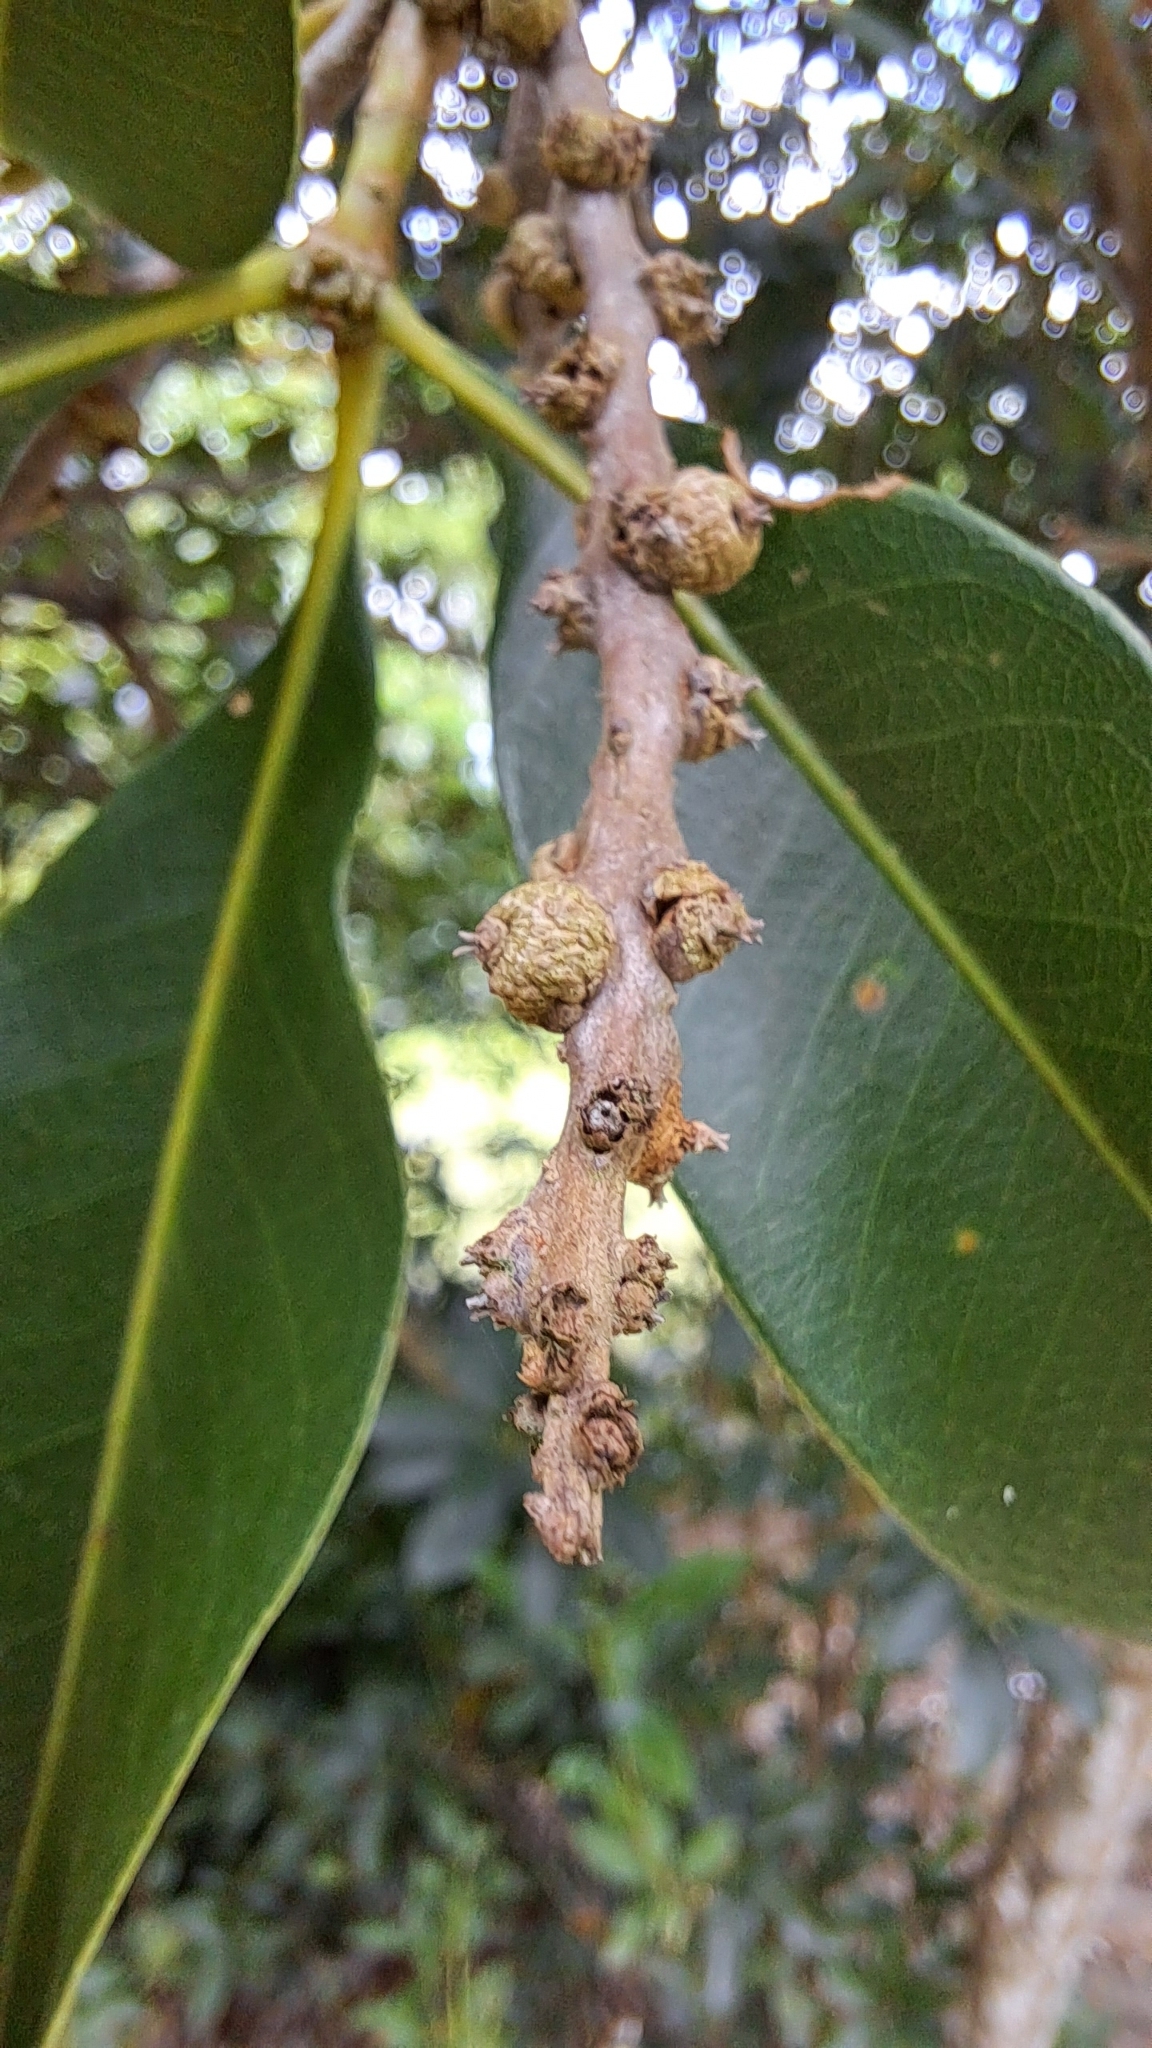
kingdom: Plantae
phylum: Tracheophyta
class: Magnoliopsida
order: Fagales
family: Fagaceae
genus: Lithocarpus
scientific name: Lithocarpus hancei
